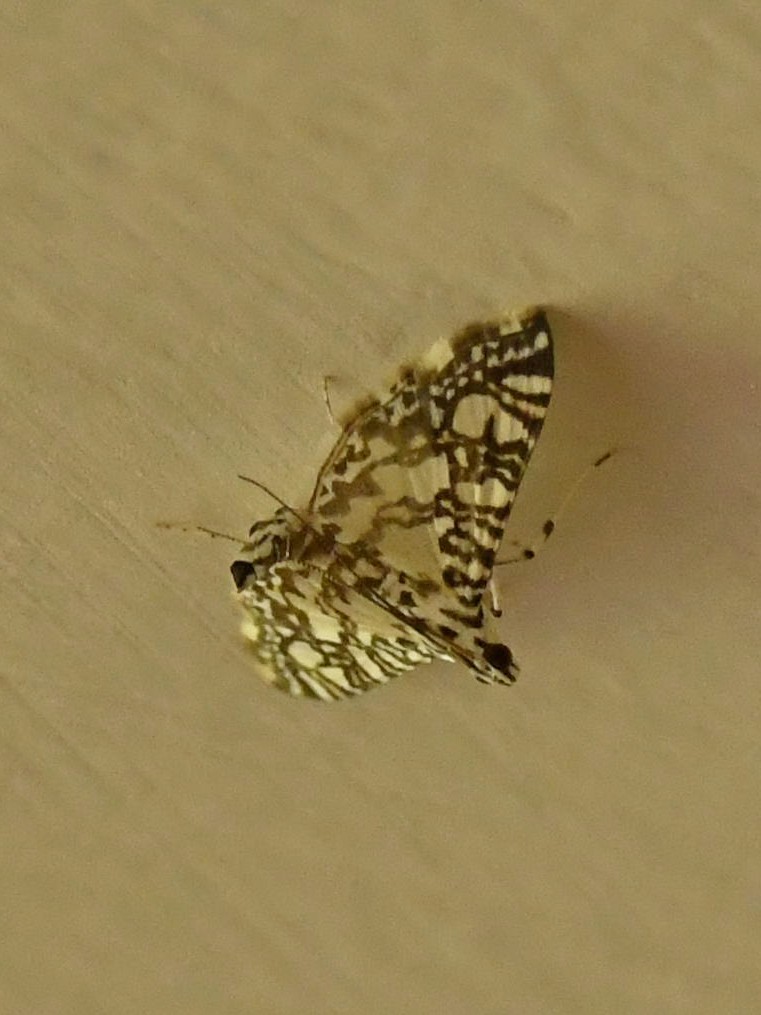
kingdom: Animalia
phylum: Arthropoda
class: Insecta
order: Lepidoptera
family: Crambidae
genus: Glyphodes
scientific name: Glyphodes onychinalis
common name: Swan plant moth
